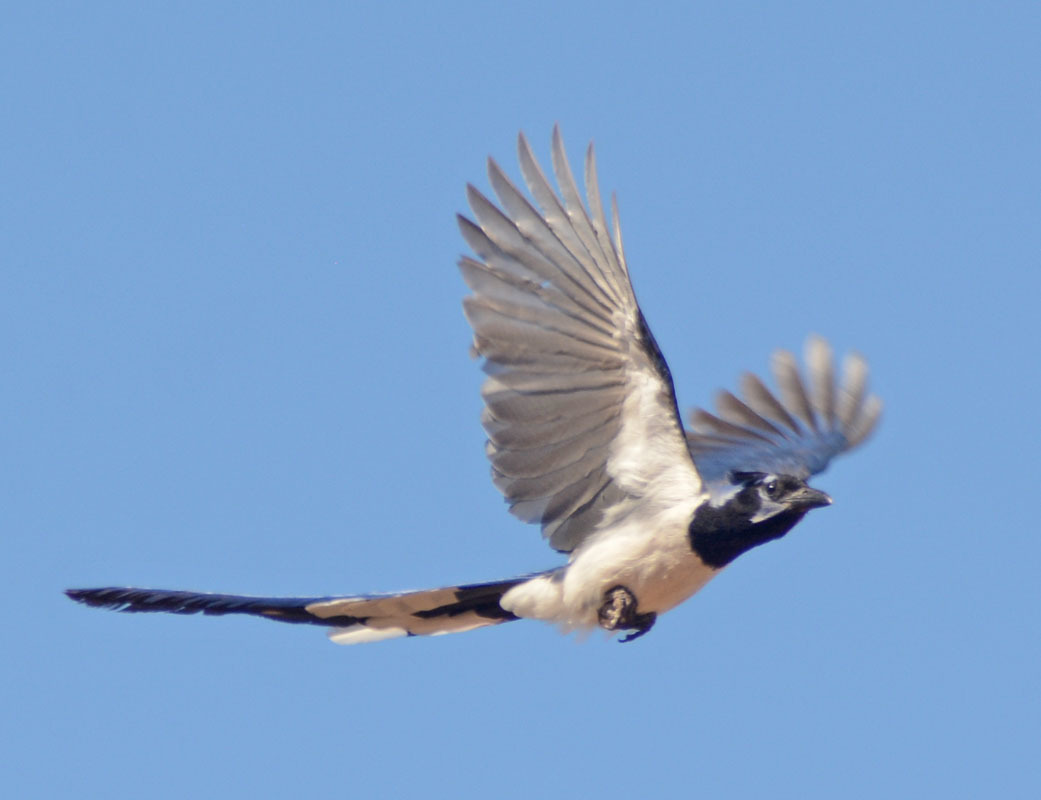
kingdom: Animalia
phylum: Chordata
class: Aves
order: Passeriformes
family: Corvidae
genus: Calocitta
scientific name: Calocitta colliei
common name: Black-throated magpie-jay
